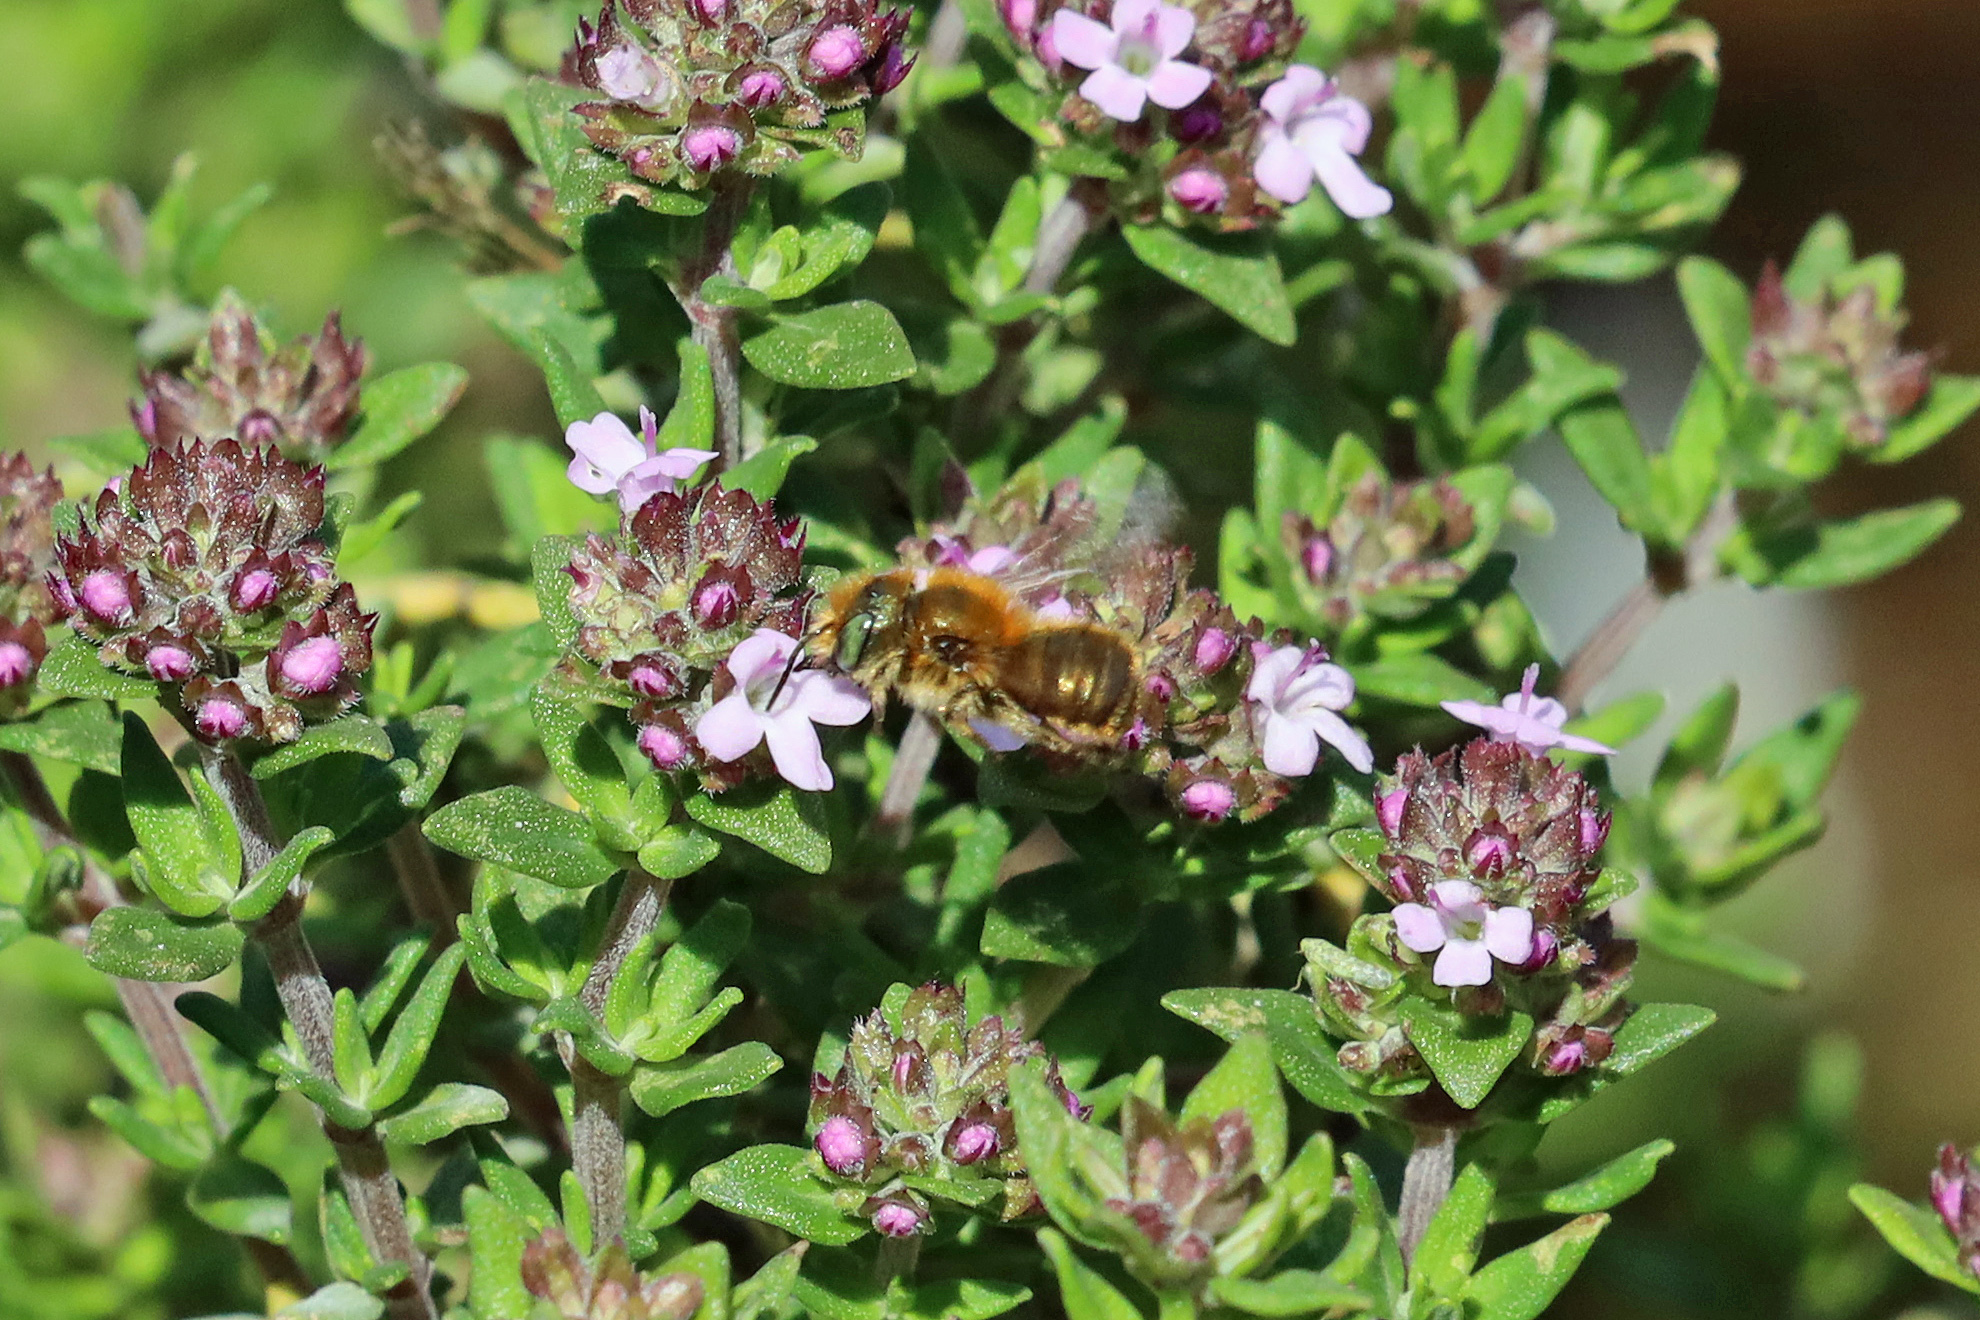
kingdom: Animalia
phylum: Arthropoda
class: Insecta
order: Hymenoptera
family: Megachilidae
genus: Osmia
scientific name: Osmia caerulescens
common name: Blue mason bee
